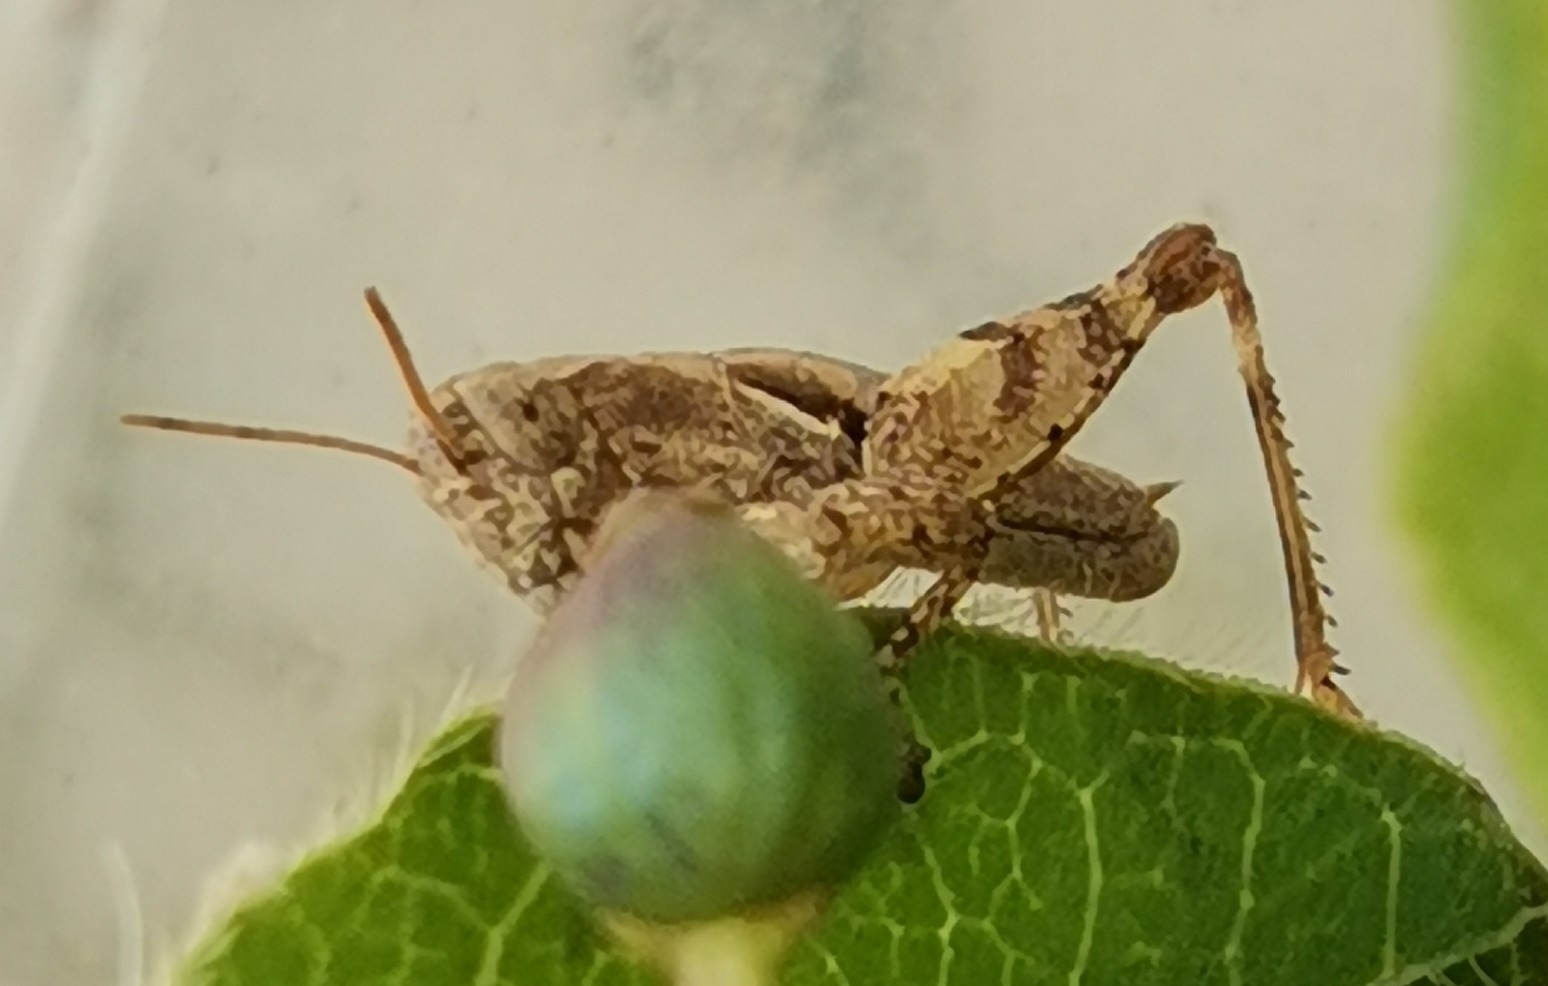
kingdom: Animalia
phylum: Arthropoda
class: Insecta
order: Orthoptera
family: Acrididae
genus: Pezotettix
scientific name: Pezotettix giornae
